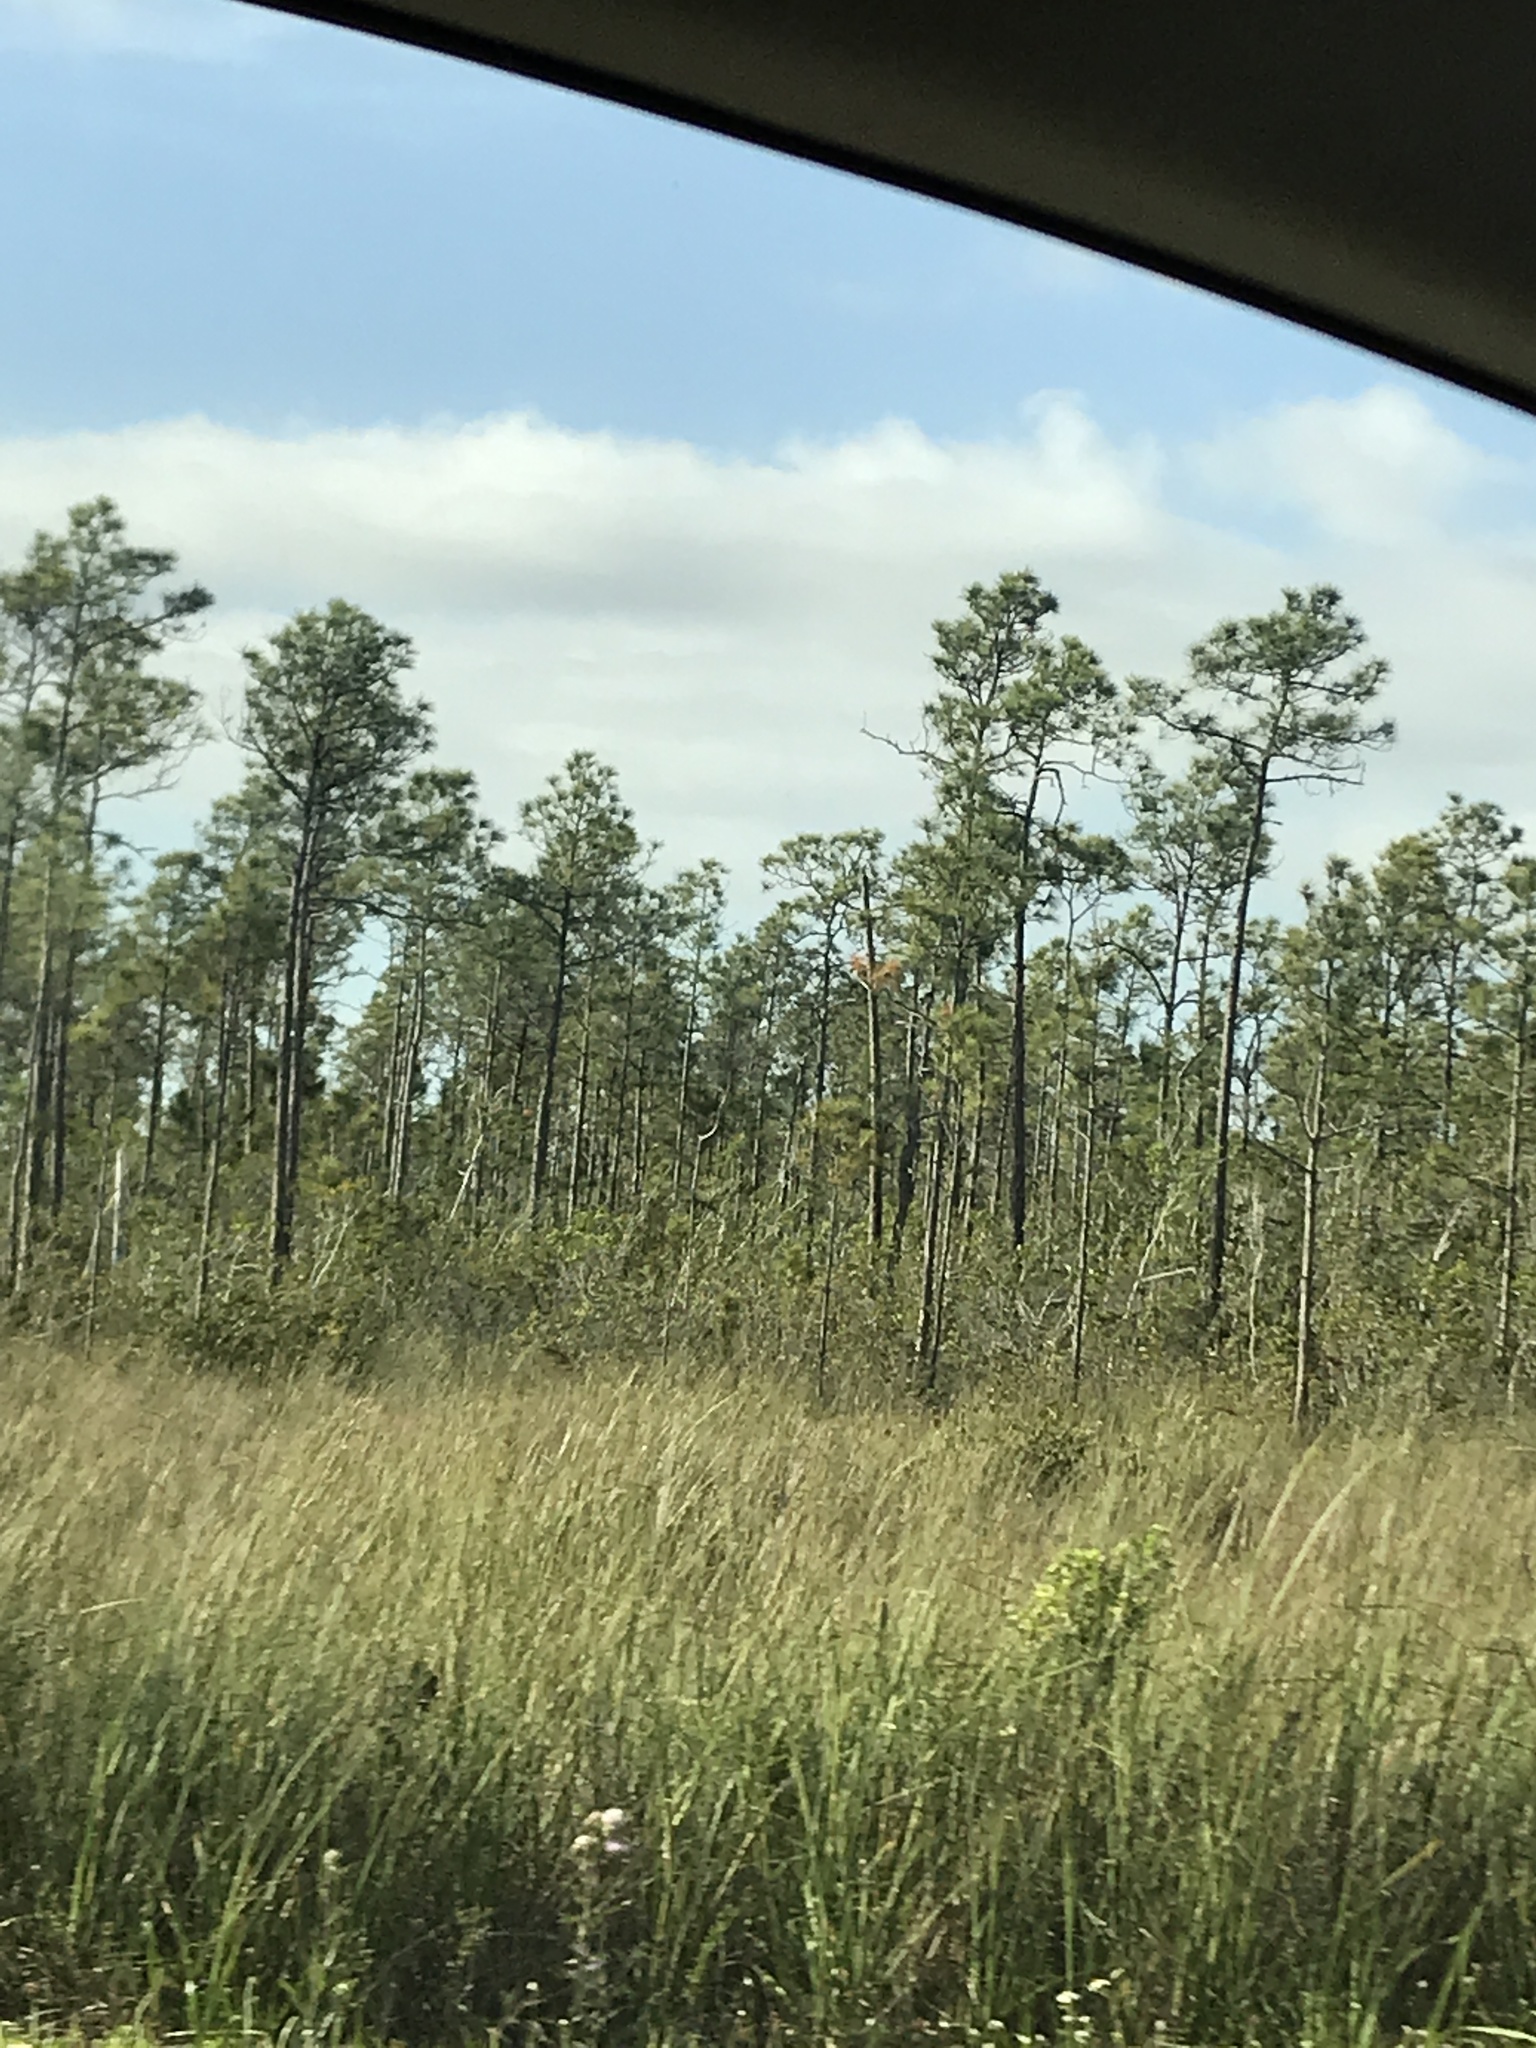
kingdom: Plantae
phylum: Tracheophyta
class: Pinopsida
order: Pinales
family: Pinaceae
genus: Pinus
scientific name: Pinus elliottii
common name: Slash pine
